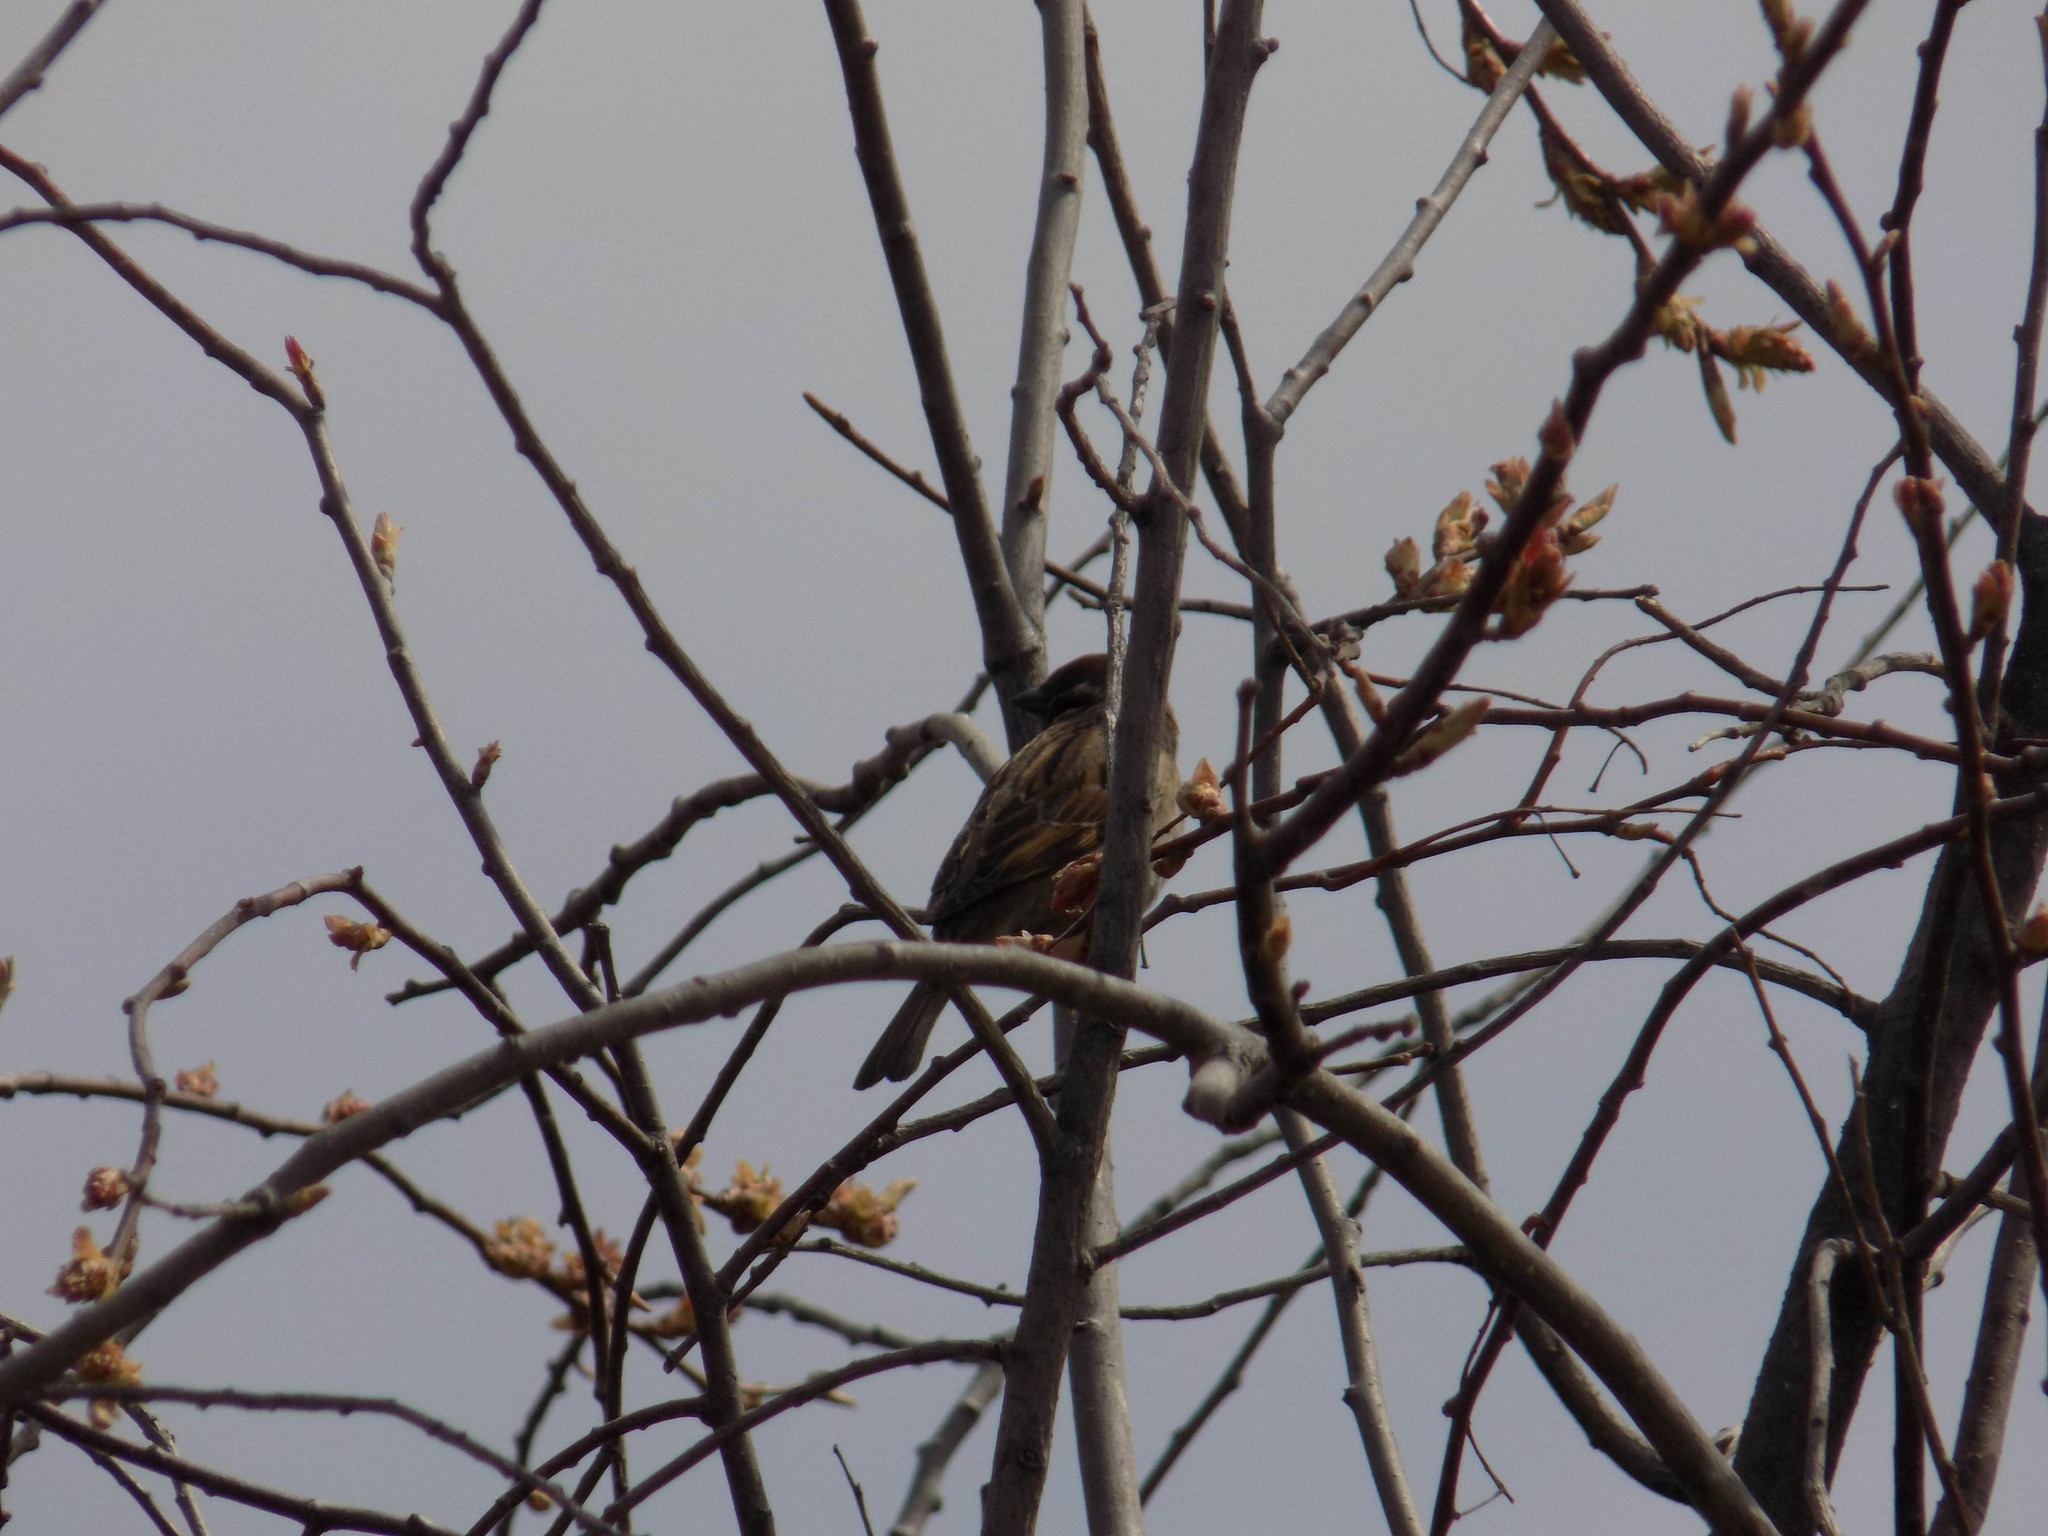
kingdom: Animalia
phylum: Chordata
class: Aves
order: Passeriformes
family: Passeridae
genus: Passer
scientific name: Passer montanus
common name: Eurasian tree sparrow
